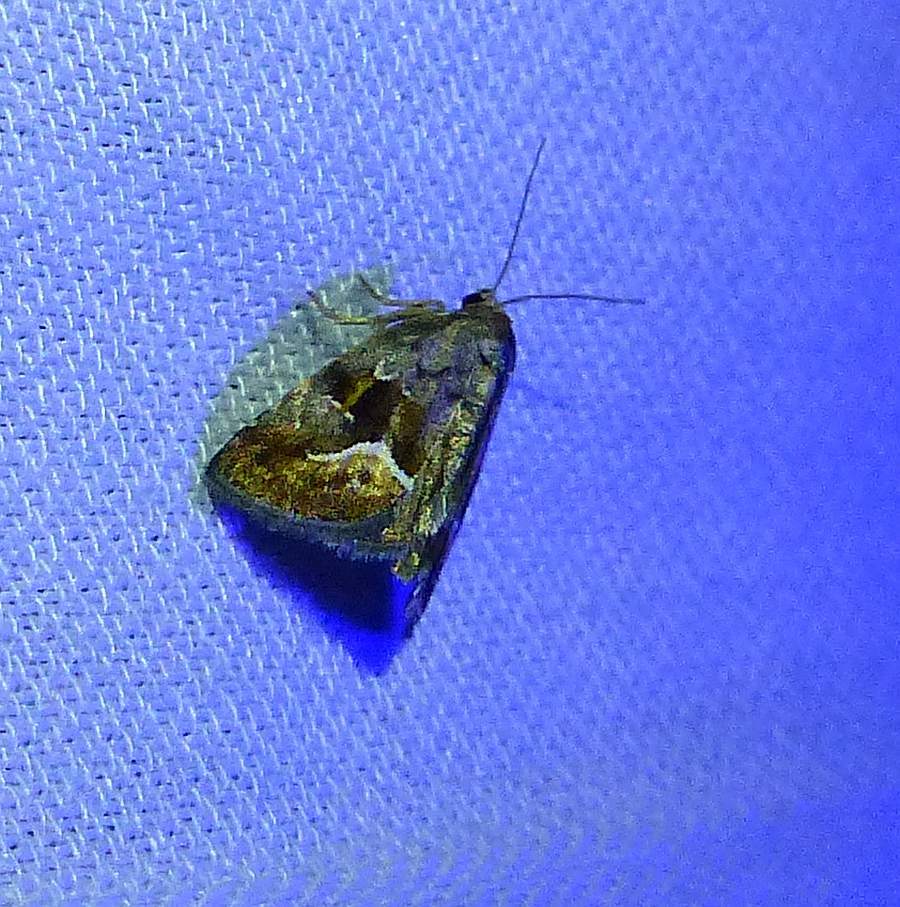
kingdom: Animalia
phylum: Arthropoda
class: Insecta
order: Lepidoptera
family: Noctuidae
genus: Deltote
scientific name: Deltote bellicula
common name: Bog glyph
